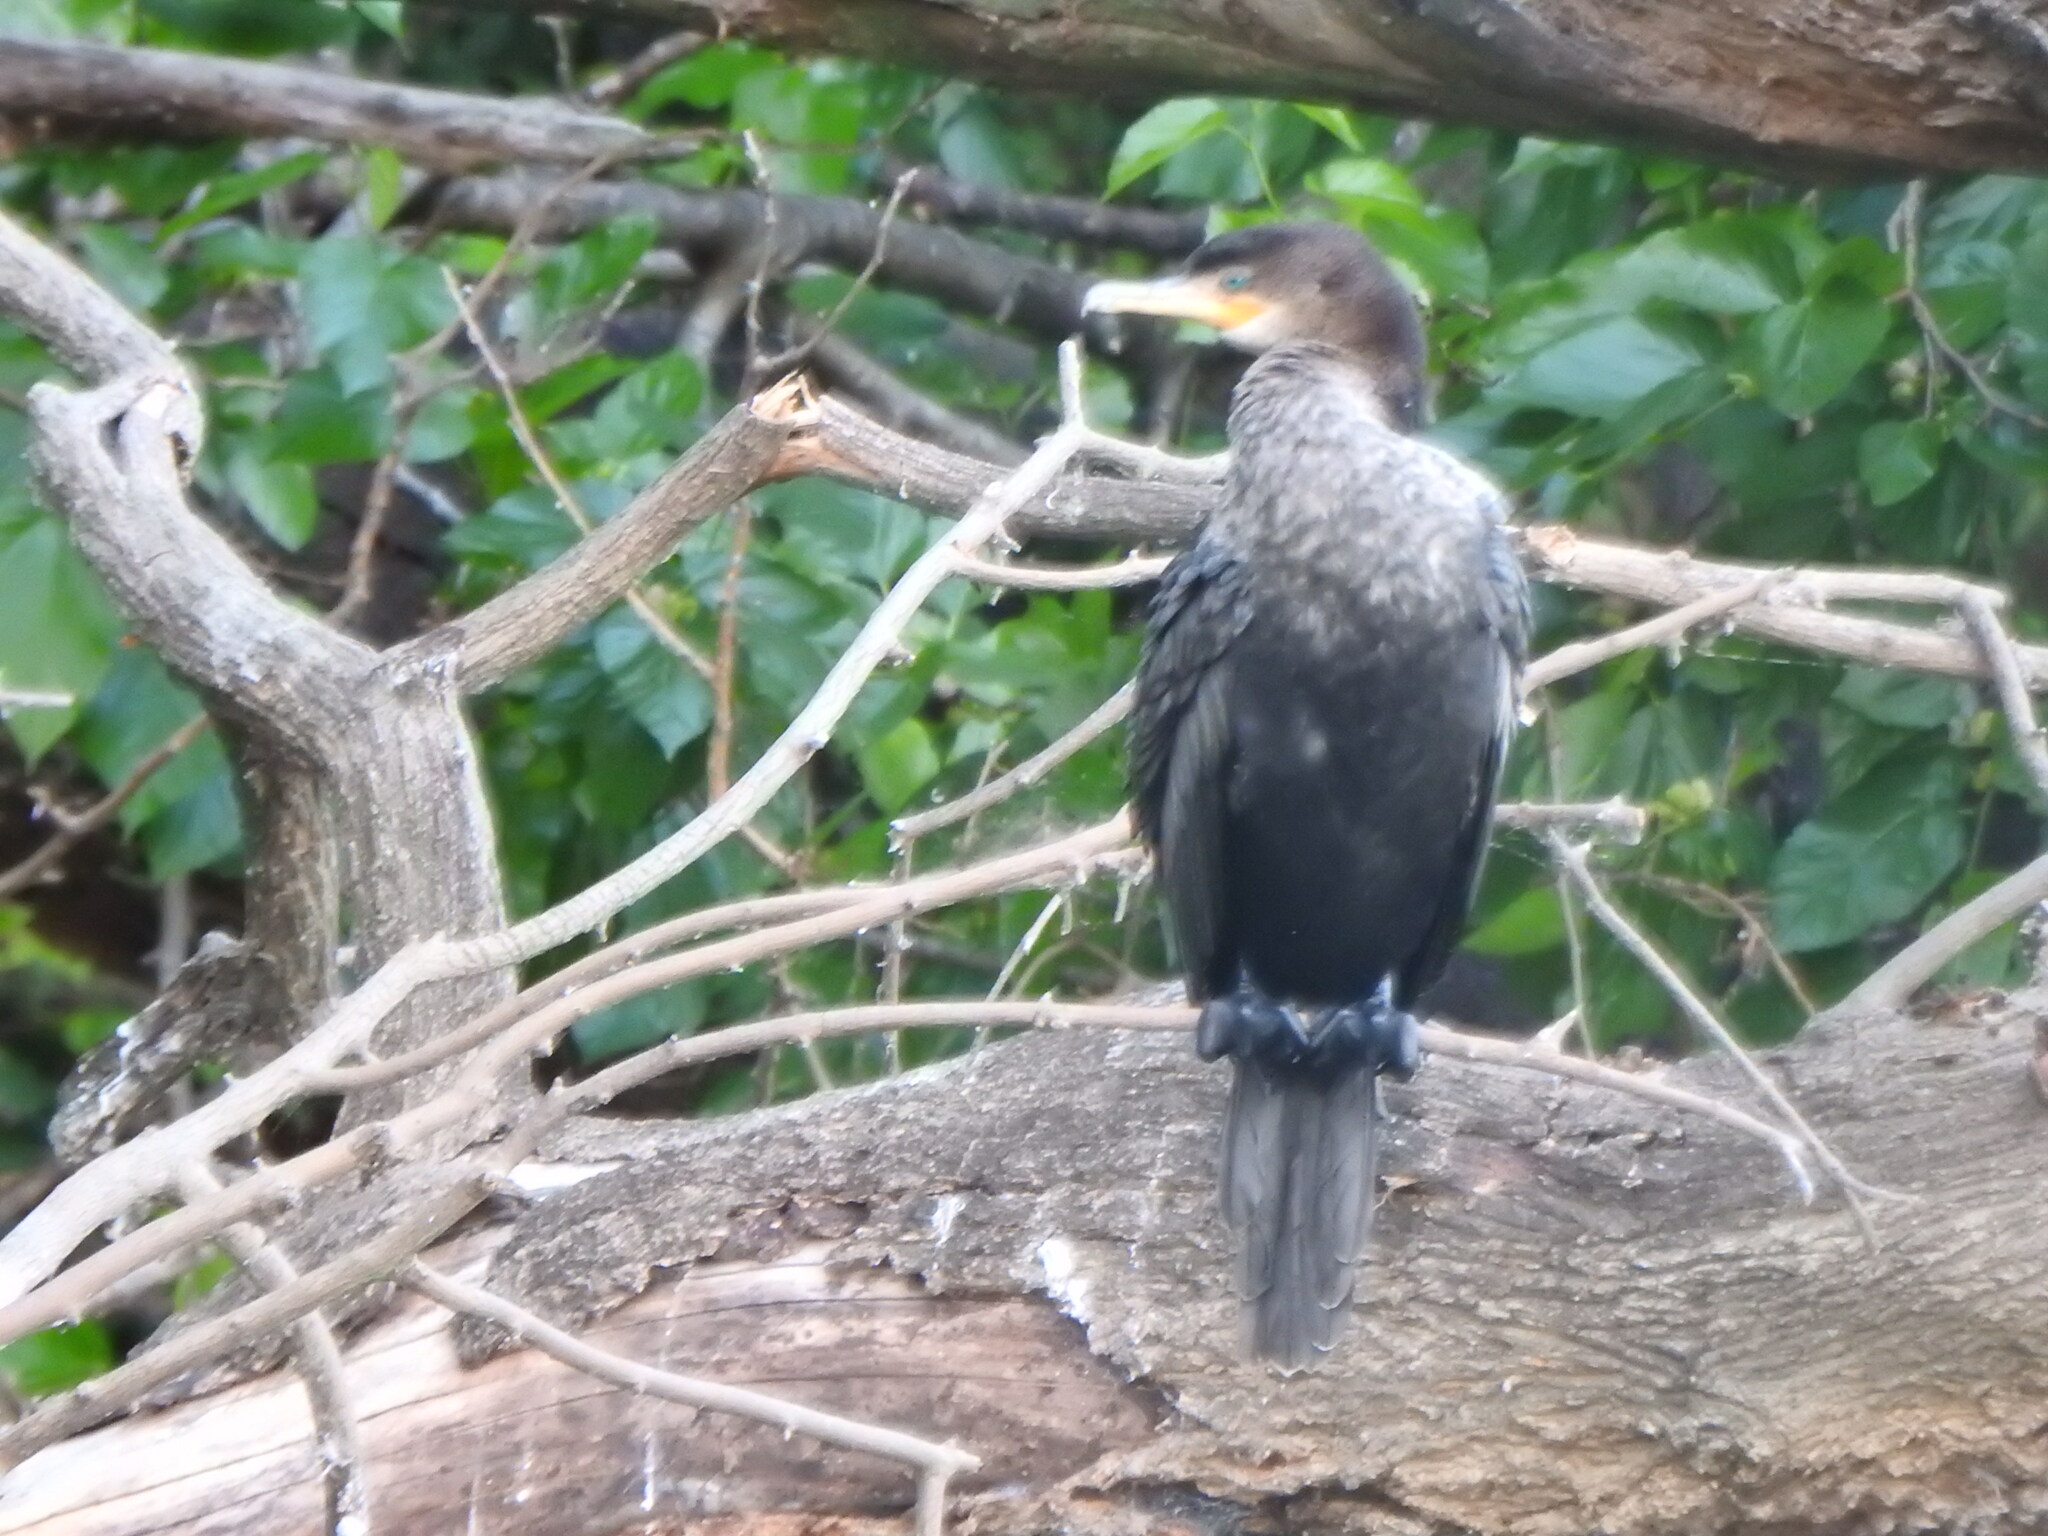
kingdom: Animalia
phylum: Chordata
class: Aves
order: Suliformes
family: Phalacrocoracidae
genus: Phalacrocorax
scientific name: Phalacrocorax brasilianus
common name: Neotropic cormorant
